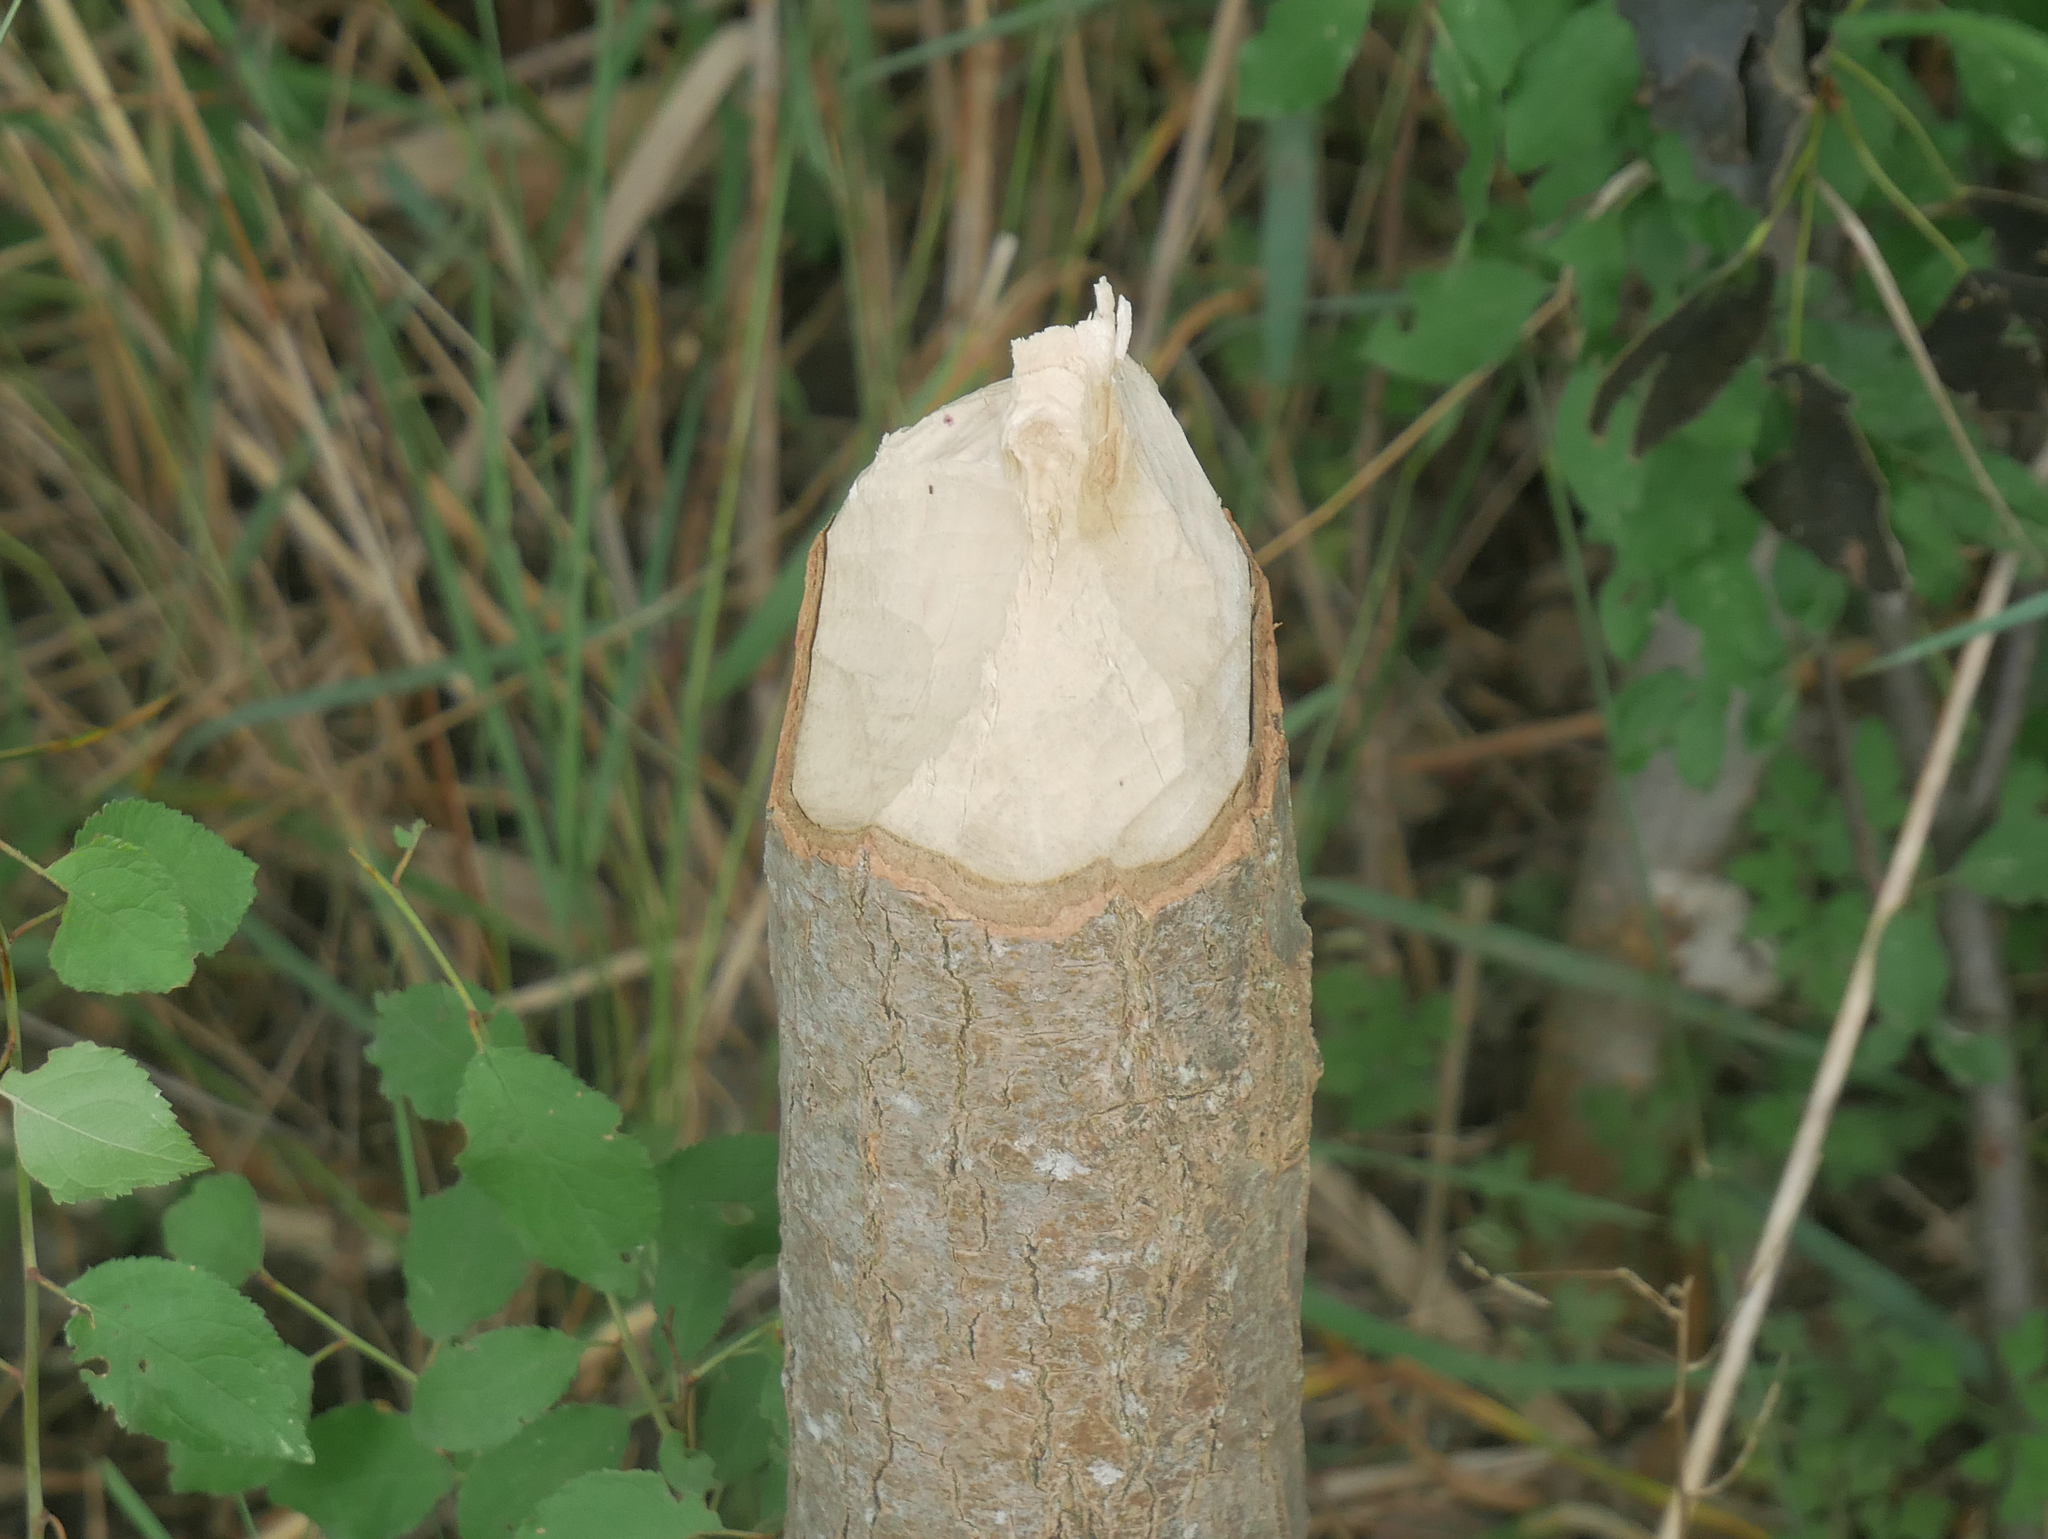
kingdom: Animalia
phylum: Chordata
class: Mammalia
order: Rodentia
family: Castoridae
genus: Castor
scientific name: Castor fiber
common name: Eurasian beaver
